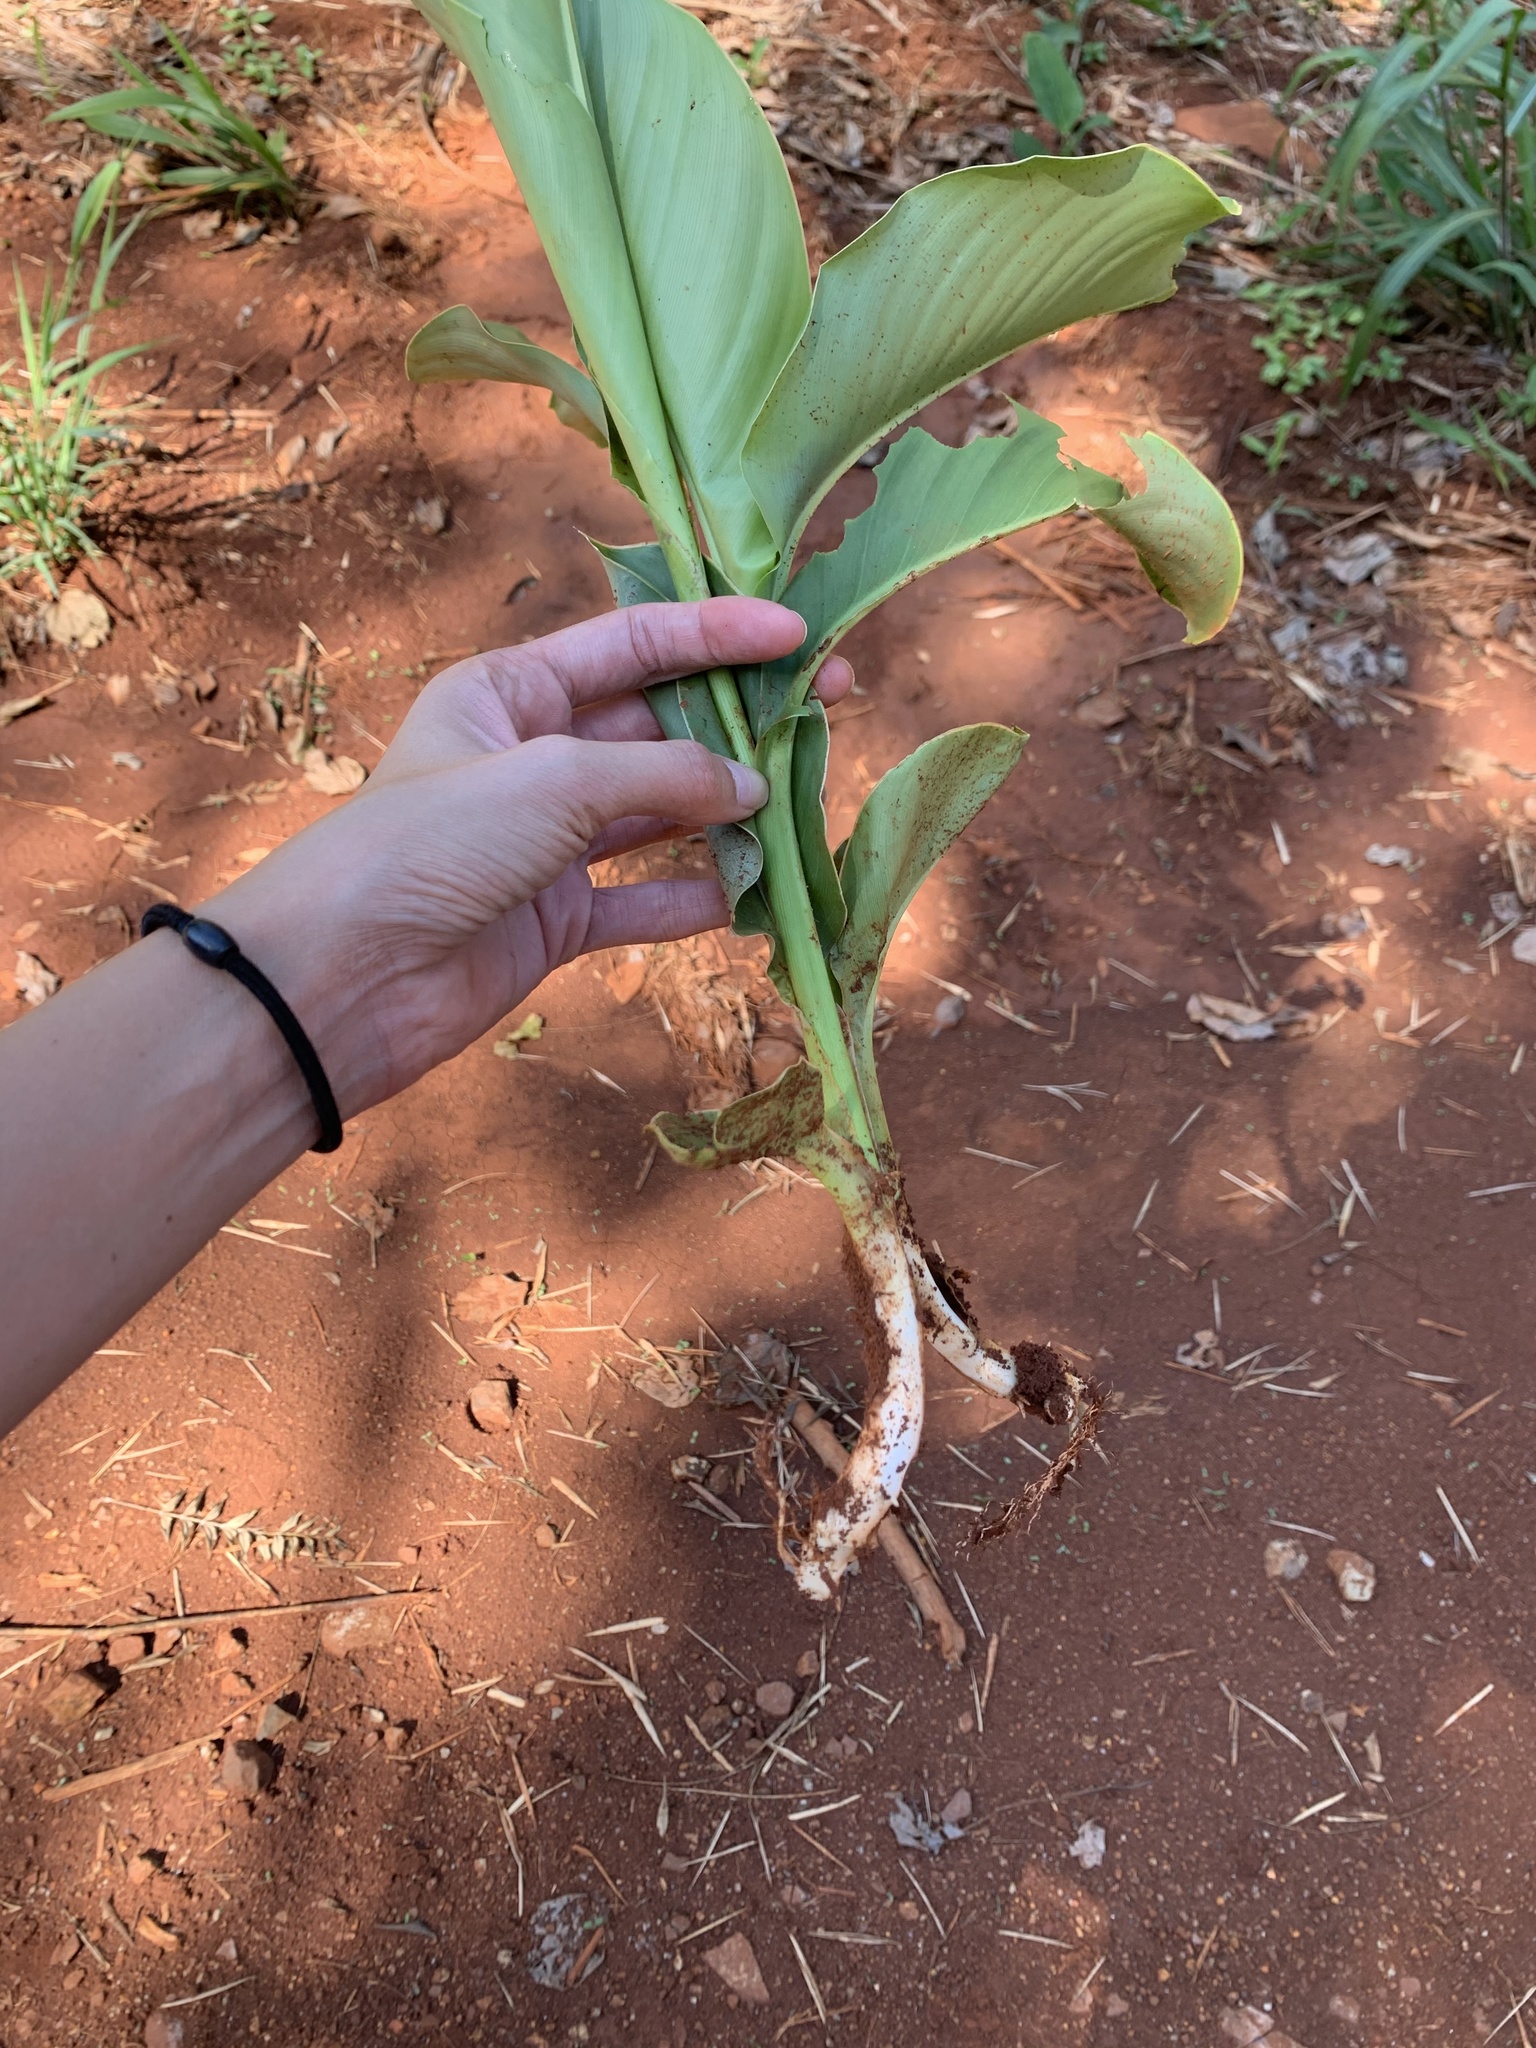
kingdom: Plantae
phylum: Tracheophyta
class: Liliopsida
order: Zingiberales
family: Cannaceae
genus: Canna
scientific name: Canna indica
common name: Indian shot
